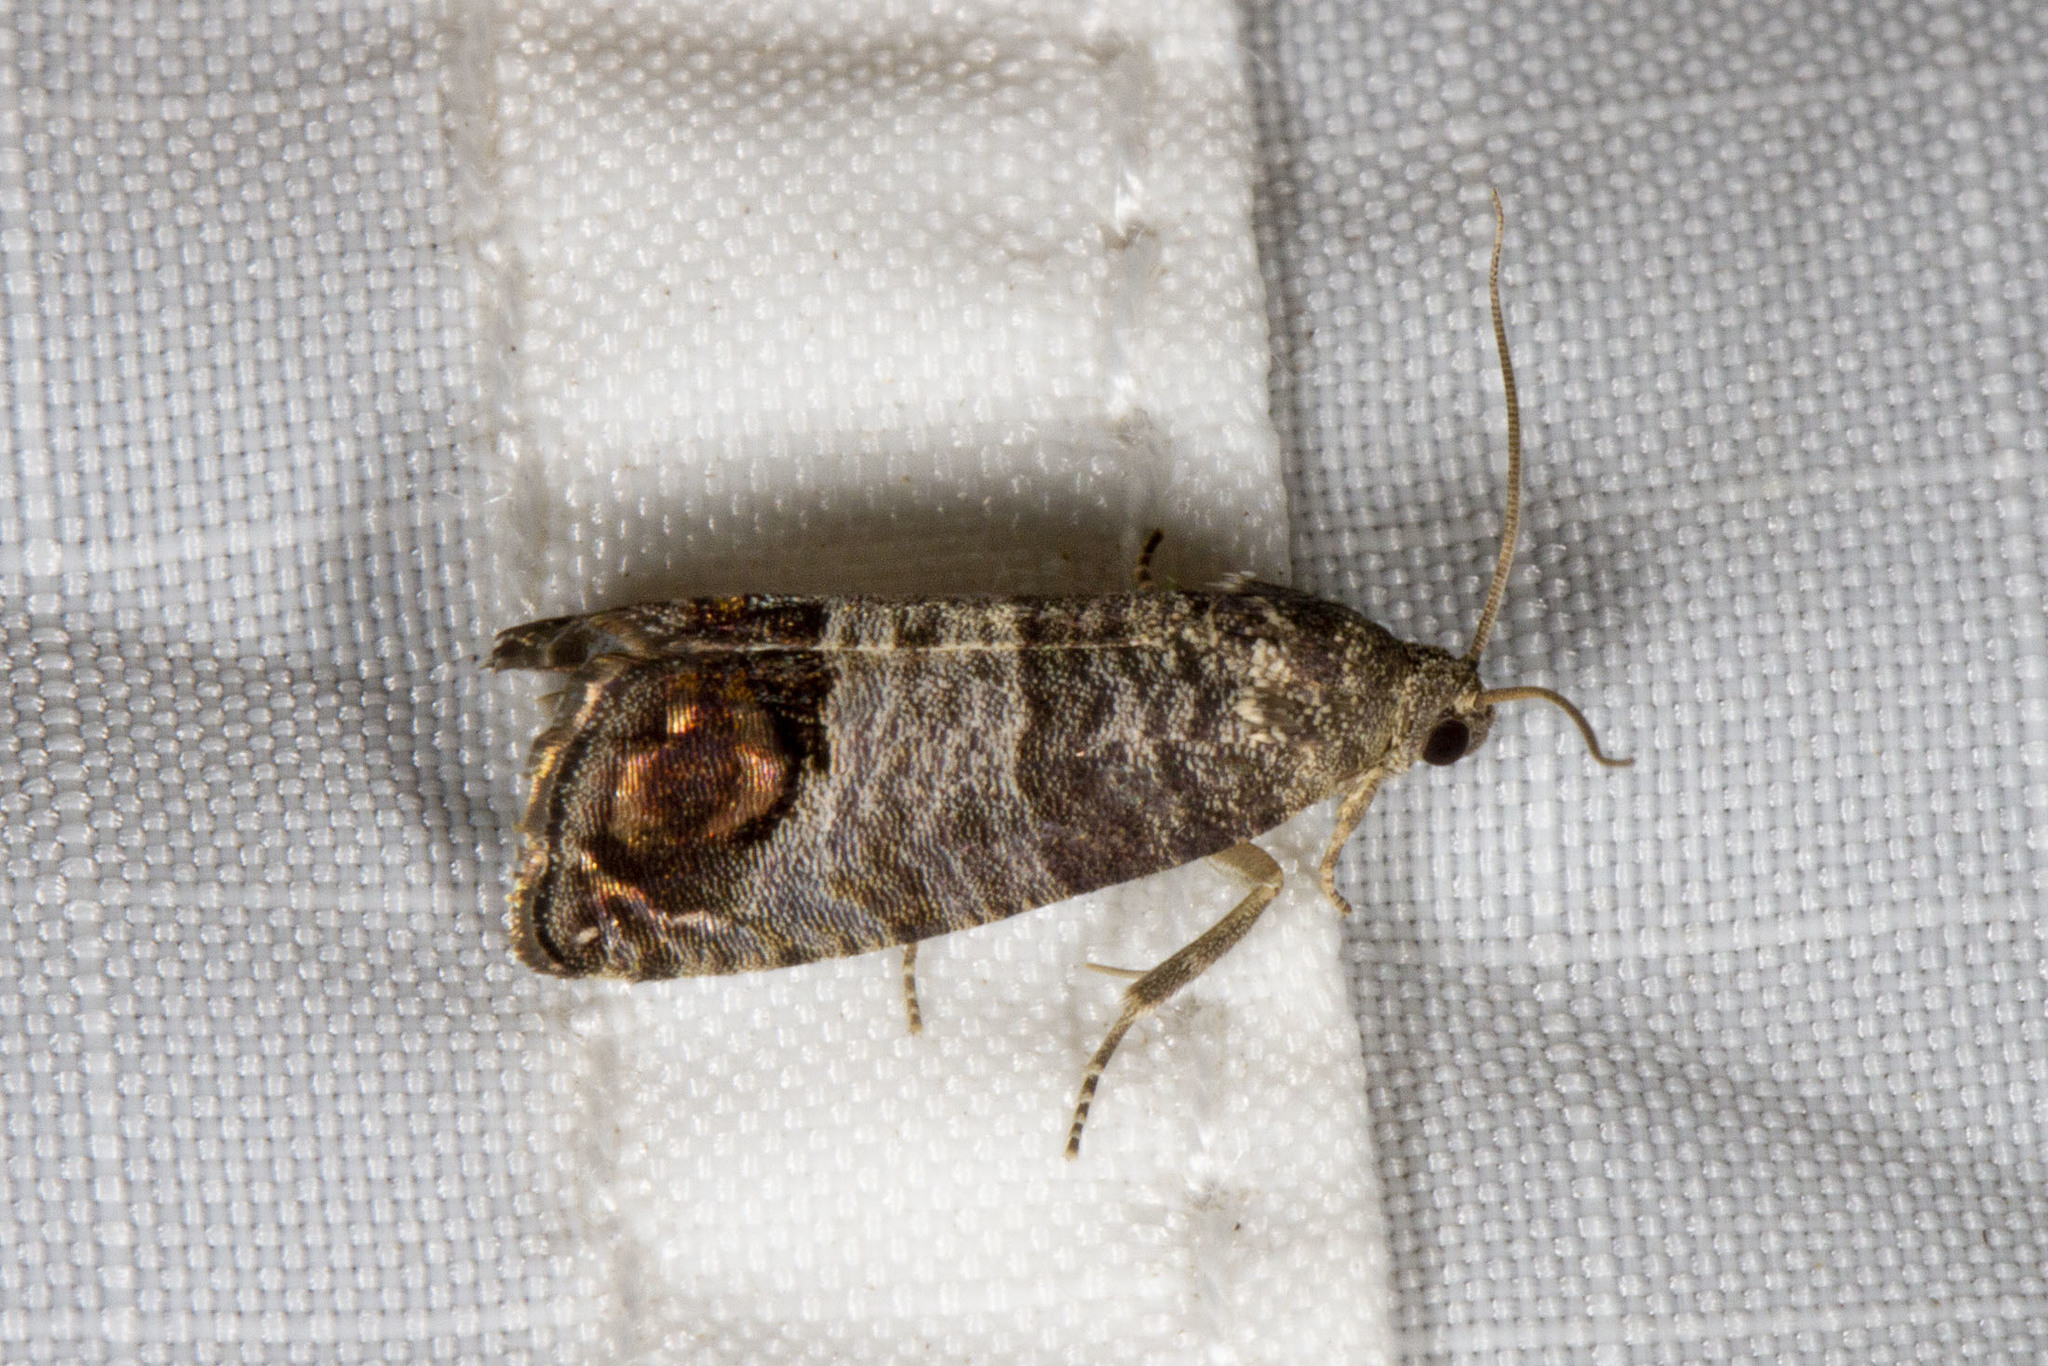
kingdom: Animalia
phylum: Arthropoda
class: Insecta
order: Lepidoptera
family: Tortricidae
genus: Cydia
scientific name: Cydia pomonella
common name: Codling moth
